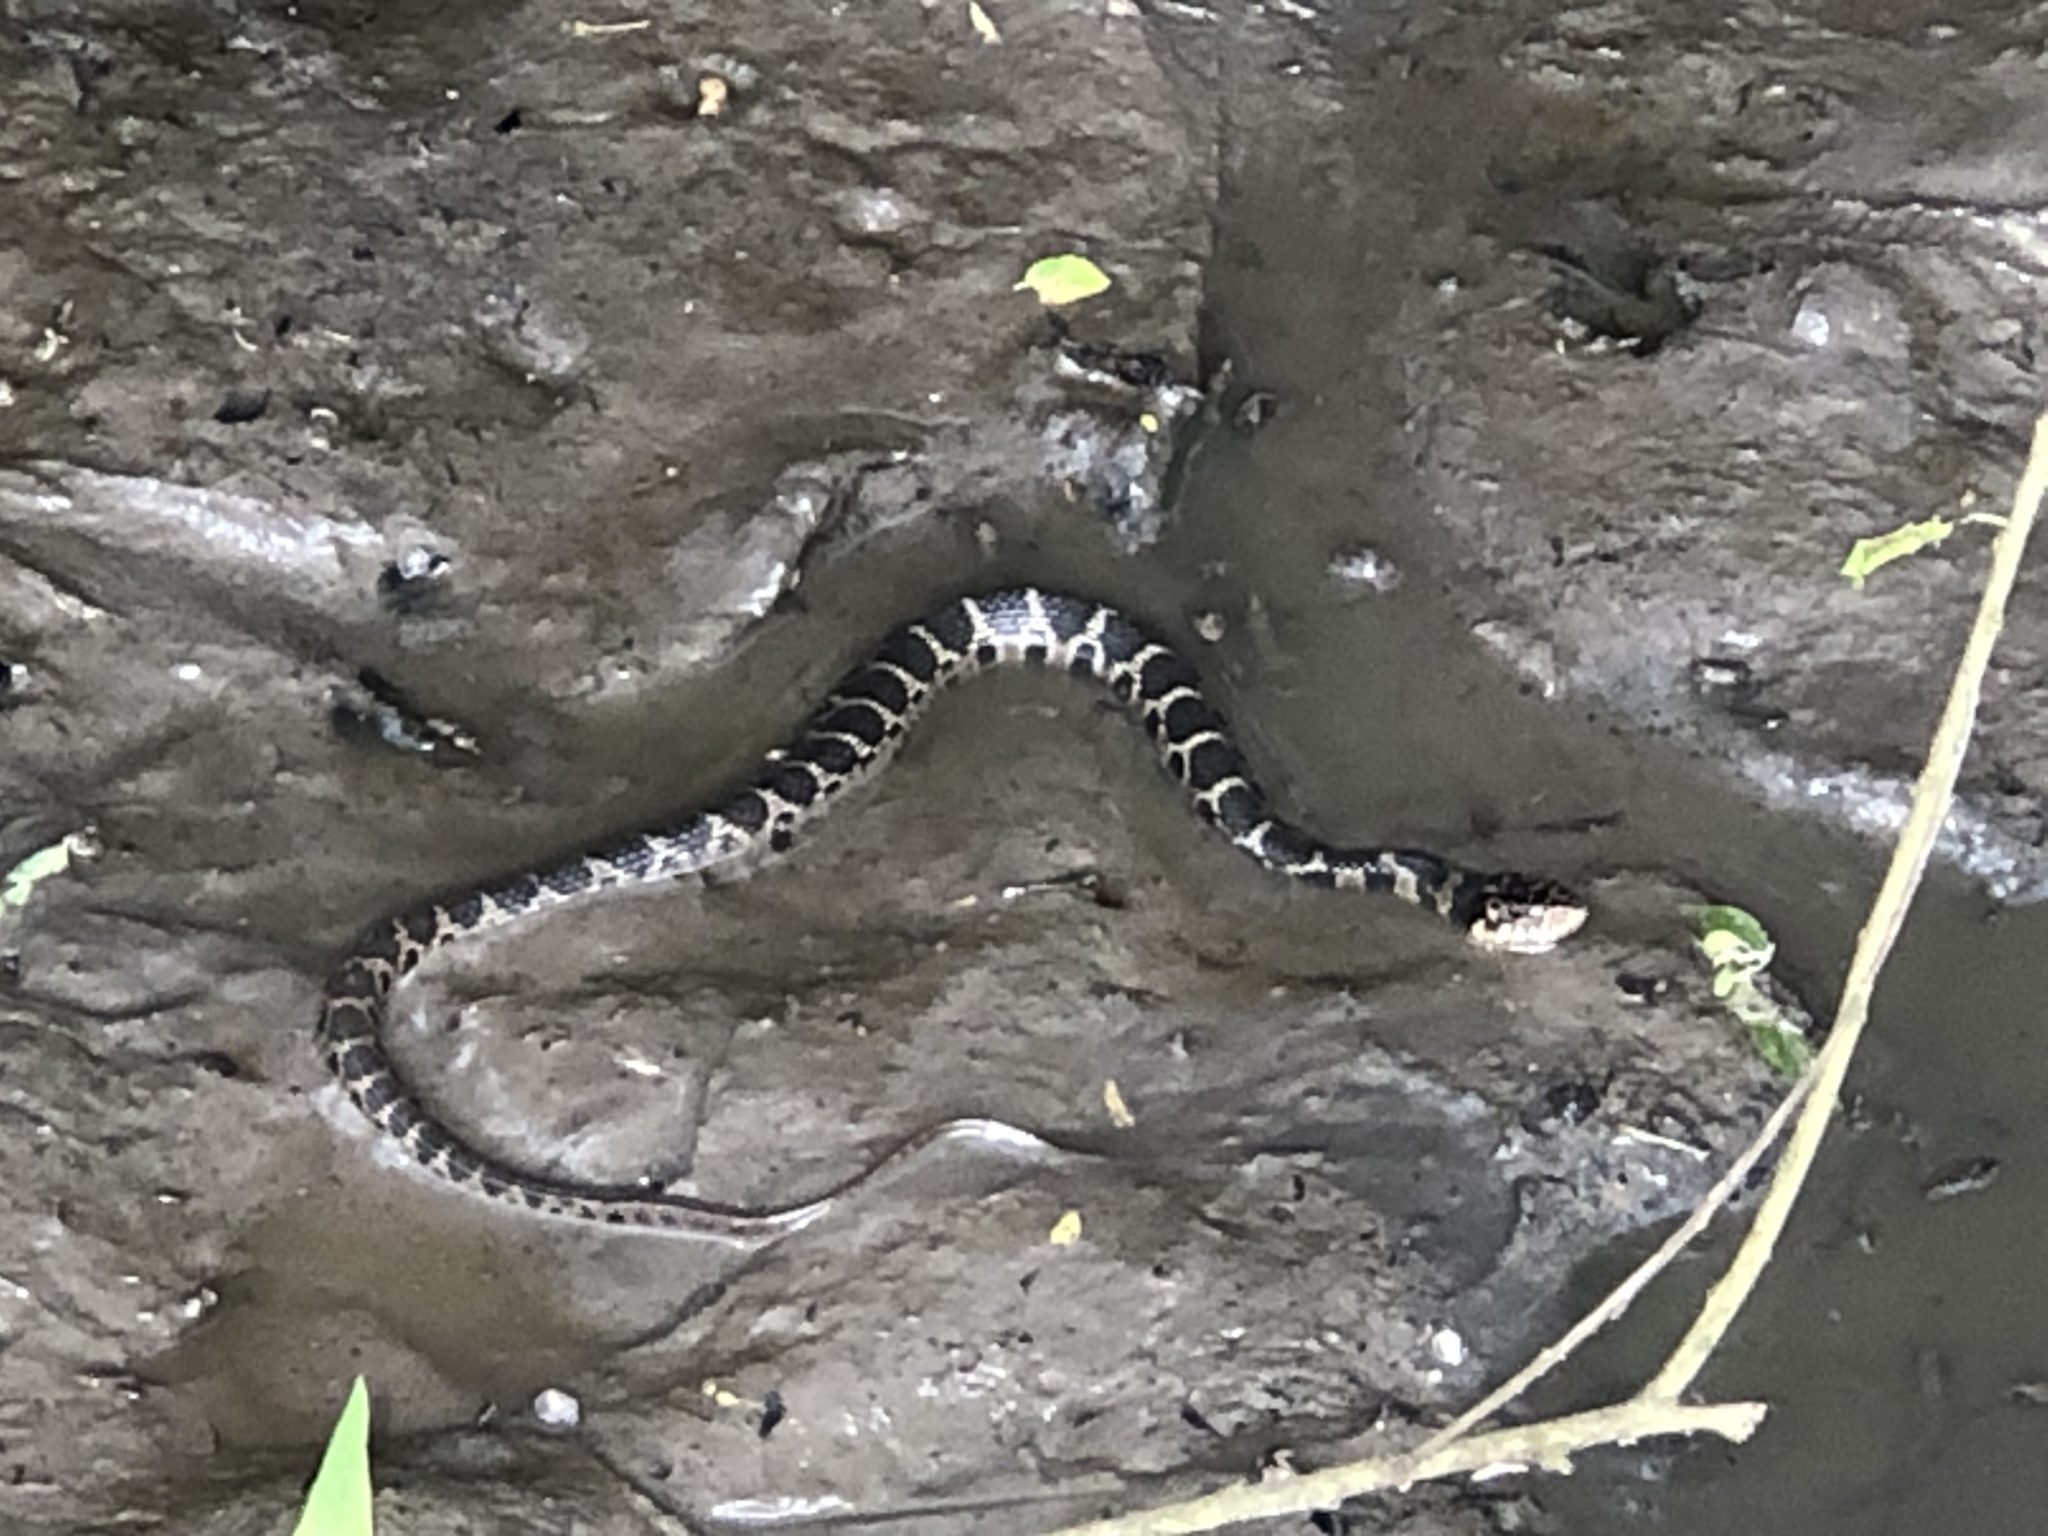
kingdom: Animalia
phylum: Chordata
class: Squamata
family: Colubridae
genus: Nerodia
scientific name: Nerodia erythrogaster
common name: Plainbelly water snake
